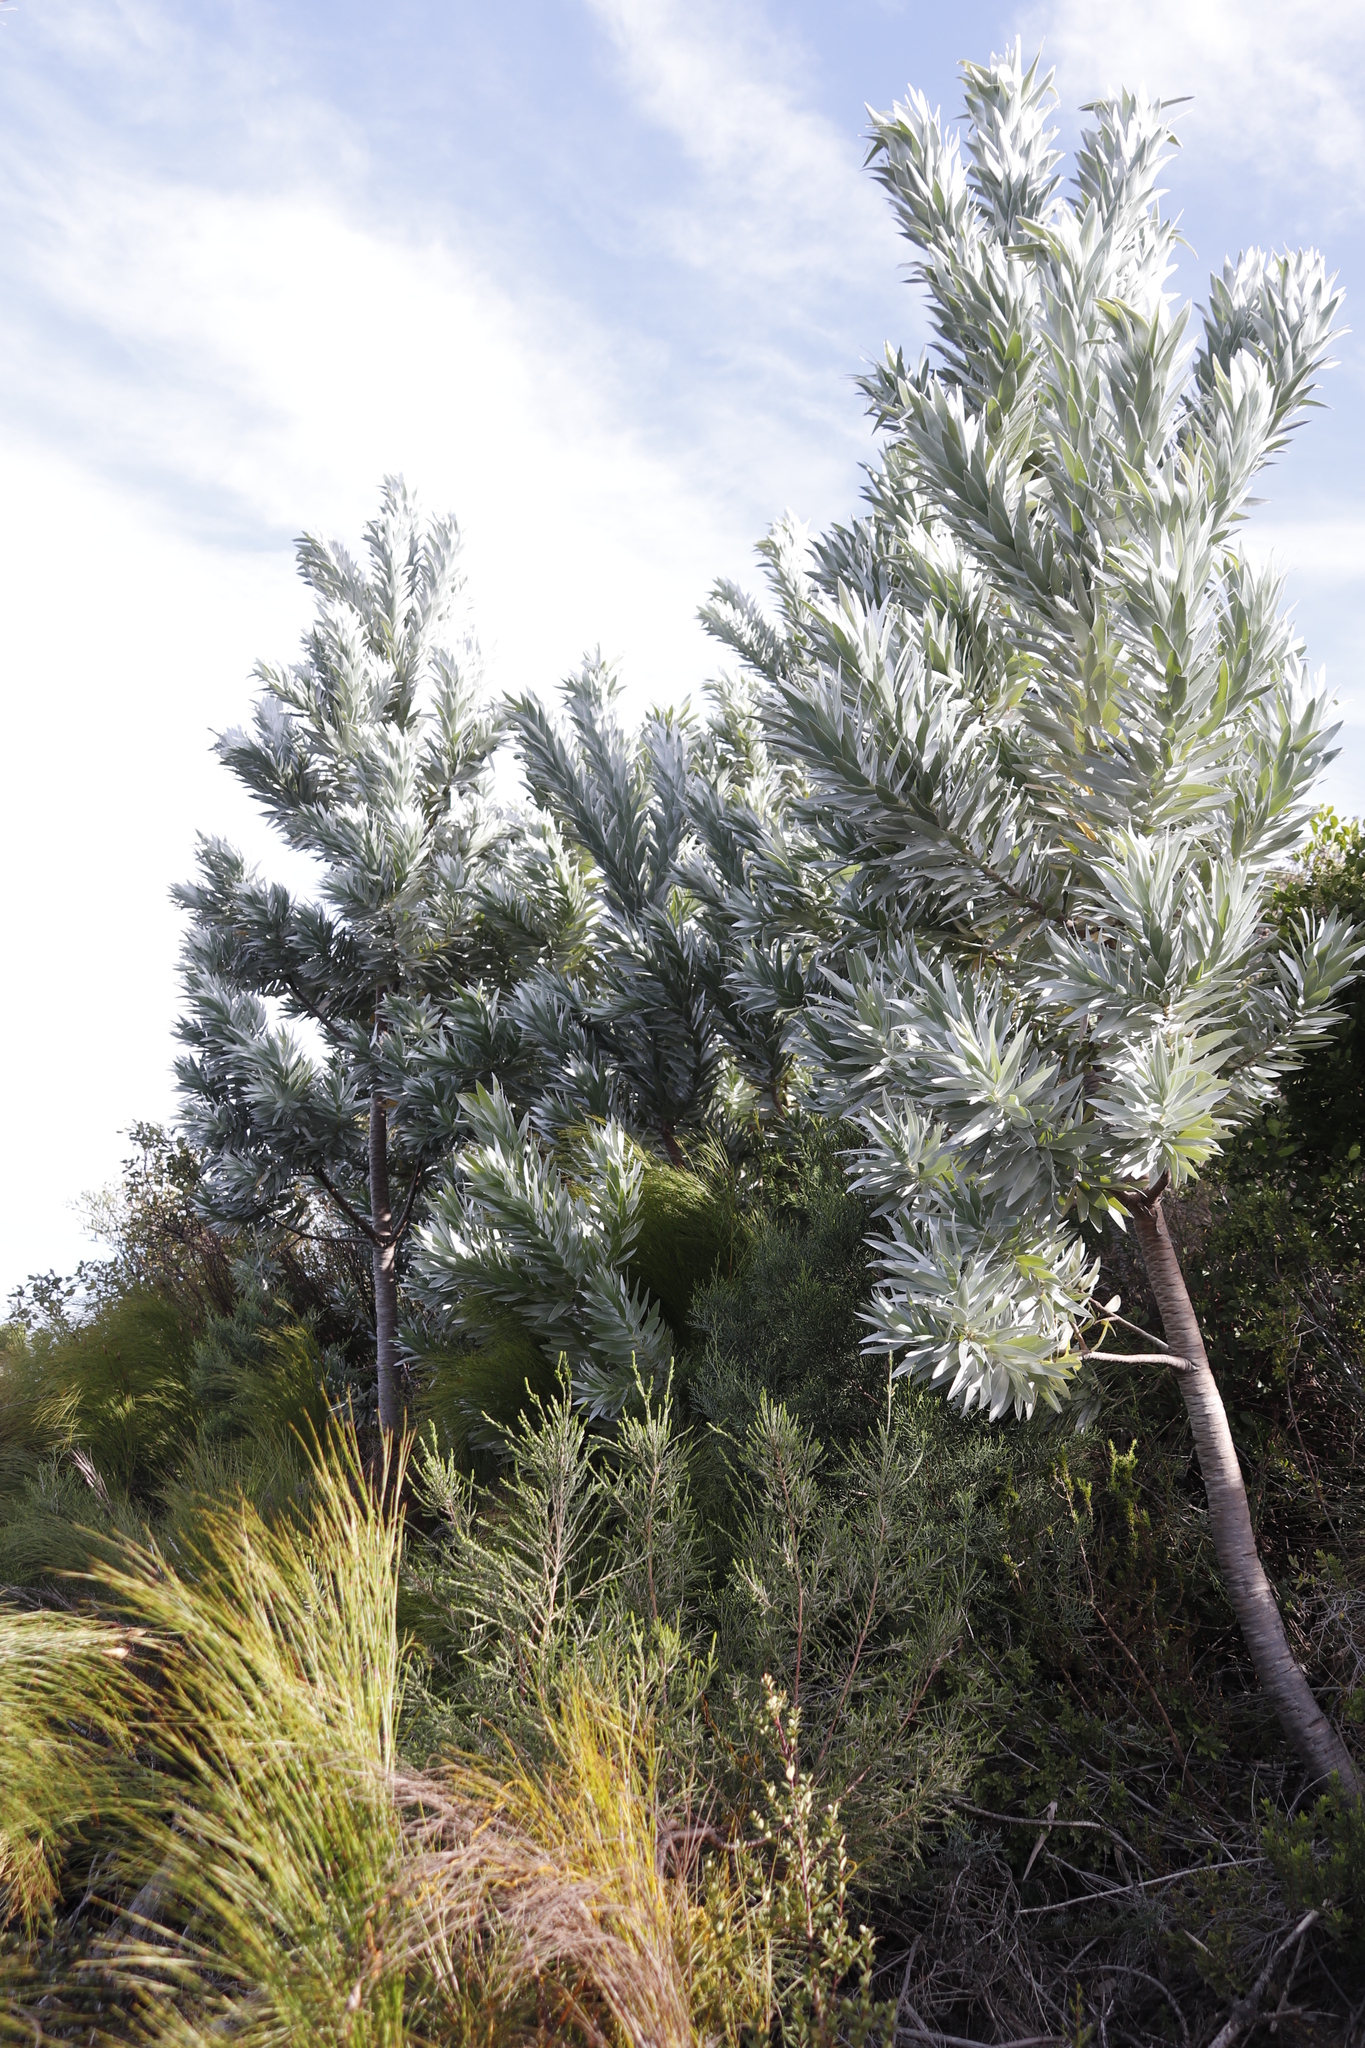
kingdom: Plantae
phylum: Tracheophyta
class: Magnoliopsida
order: Proteales
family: Proteaceae
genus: Leucadendron
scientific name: Leucadendron argenteum
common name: Cape silver tree
